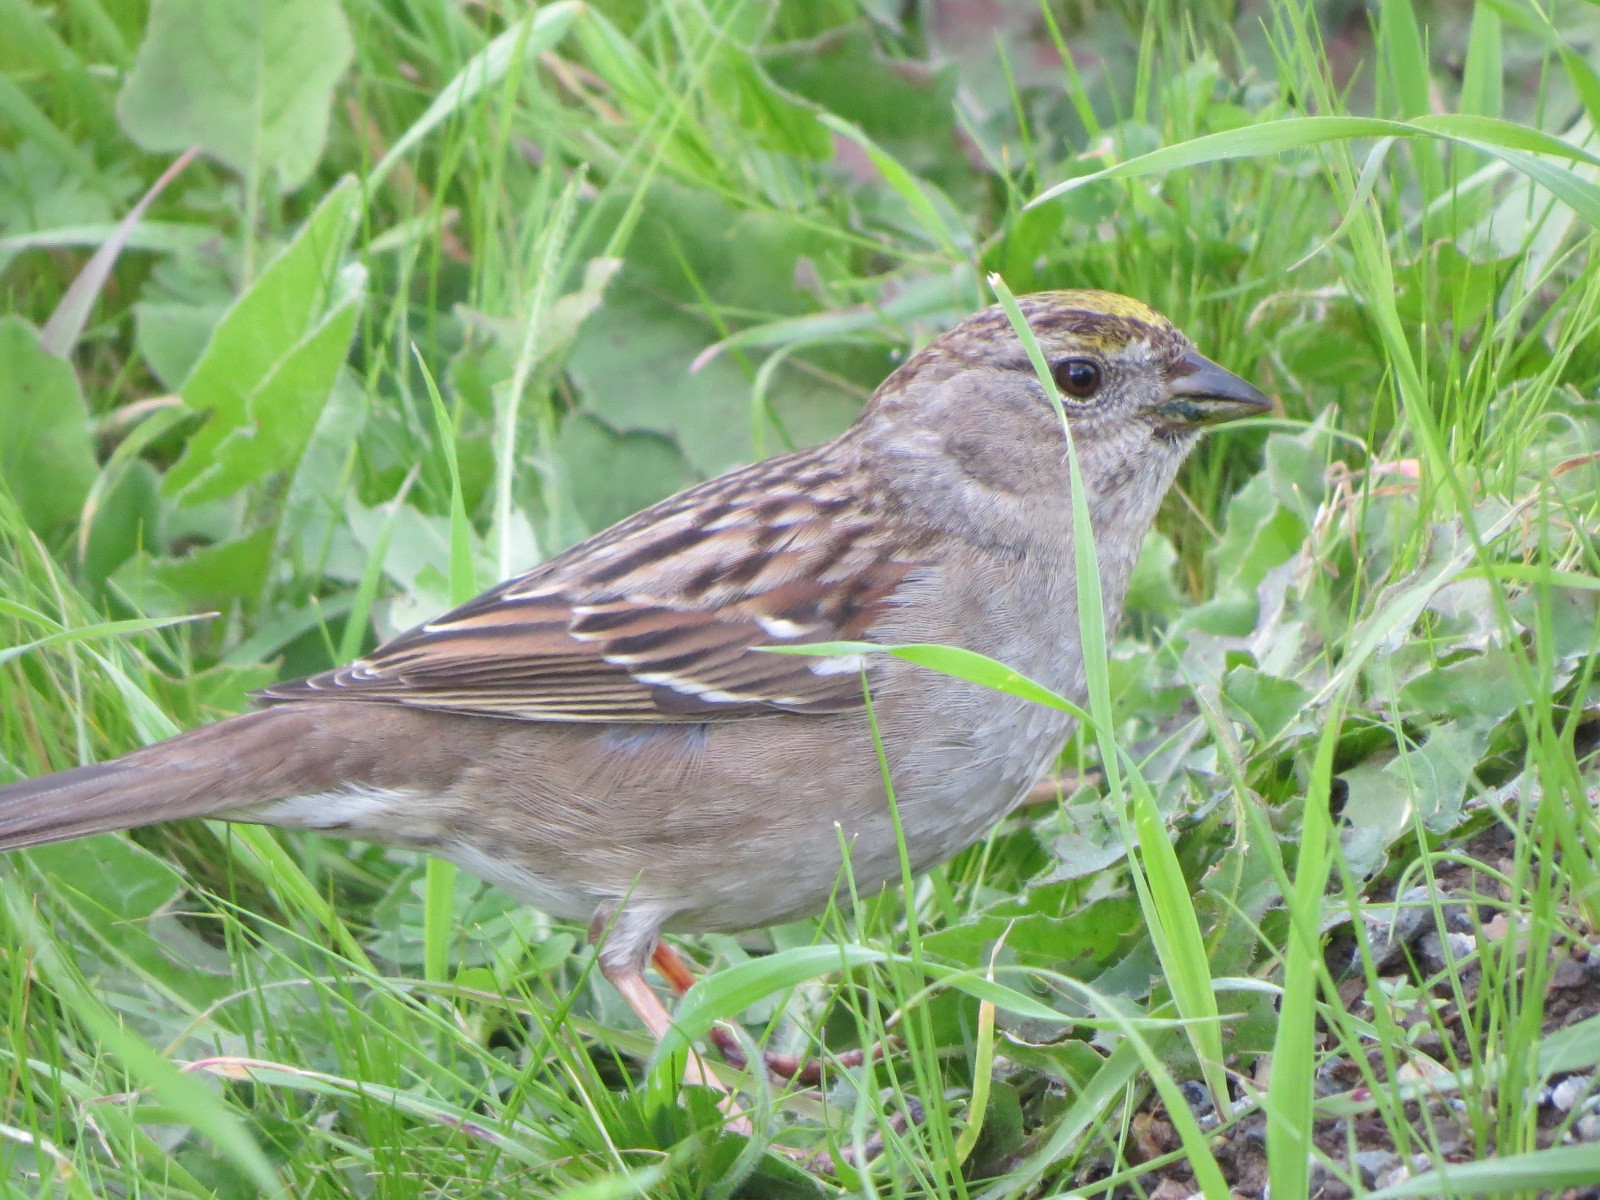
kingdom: Animalia
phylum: Chordata
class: Aves
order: Passeriformes
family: Passerellidae
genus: Zonotrichia
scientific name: Zonotrichia atricapilla
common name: Golden-crowned sparrow
